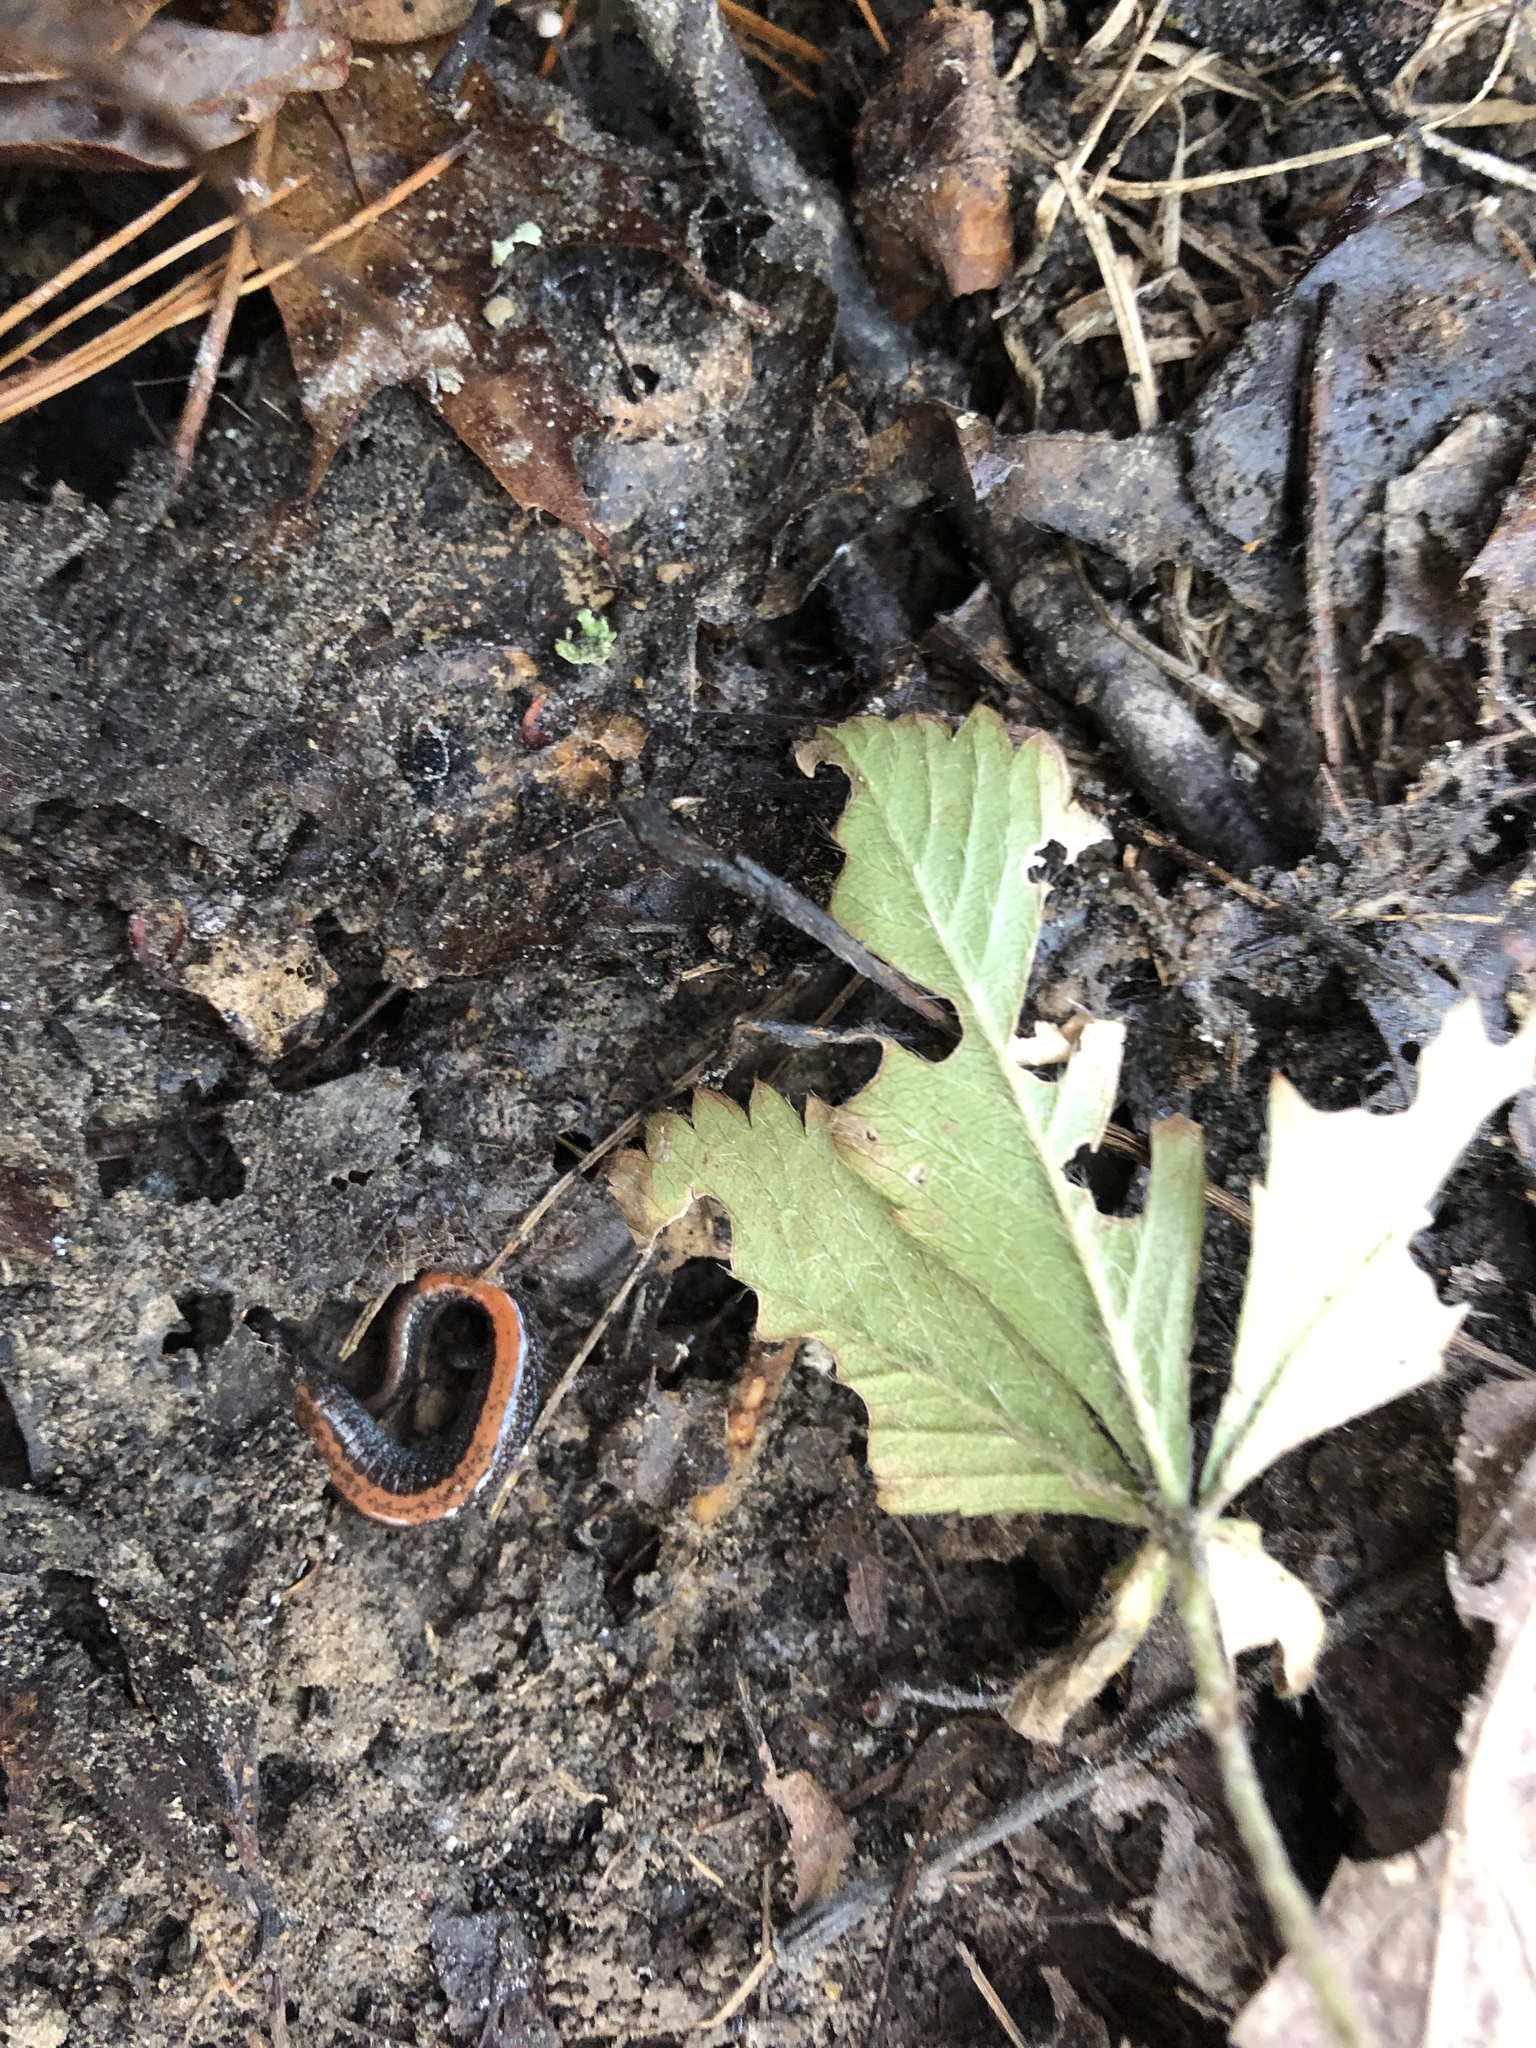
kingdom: Animalia
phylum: Chordata
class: Amphibia
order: Caudata
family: Plethodontidae
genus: Plethodon
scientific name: Plethodon cinereus
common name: Redback salamander
